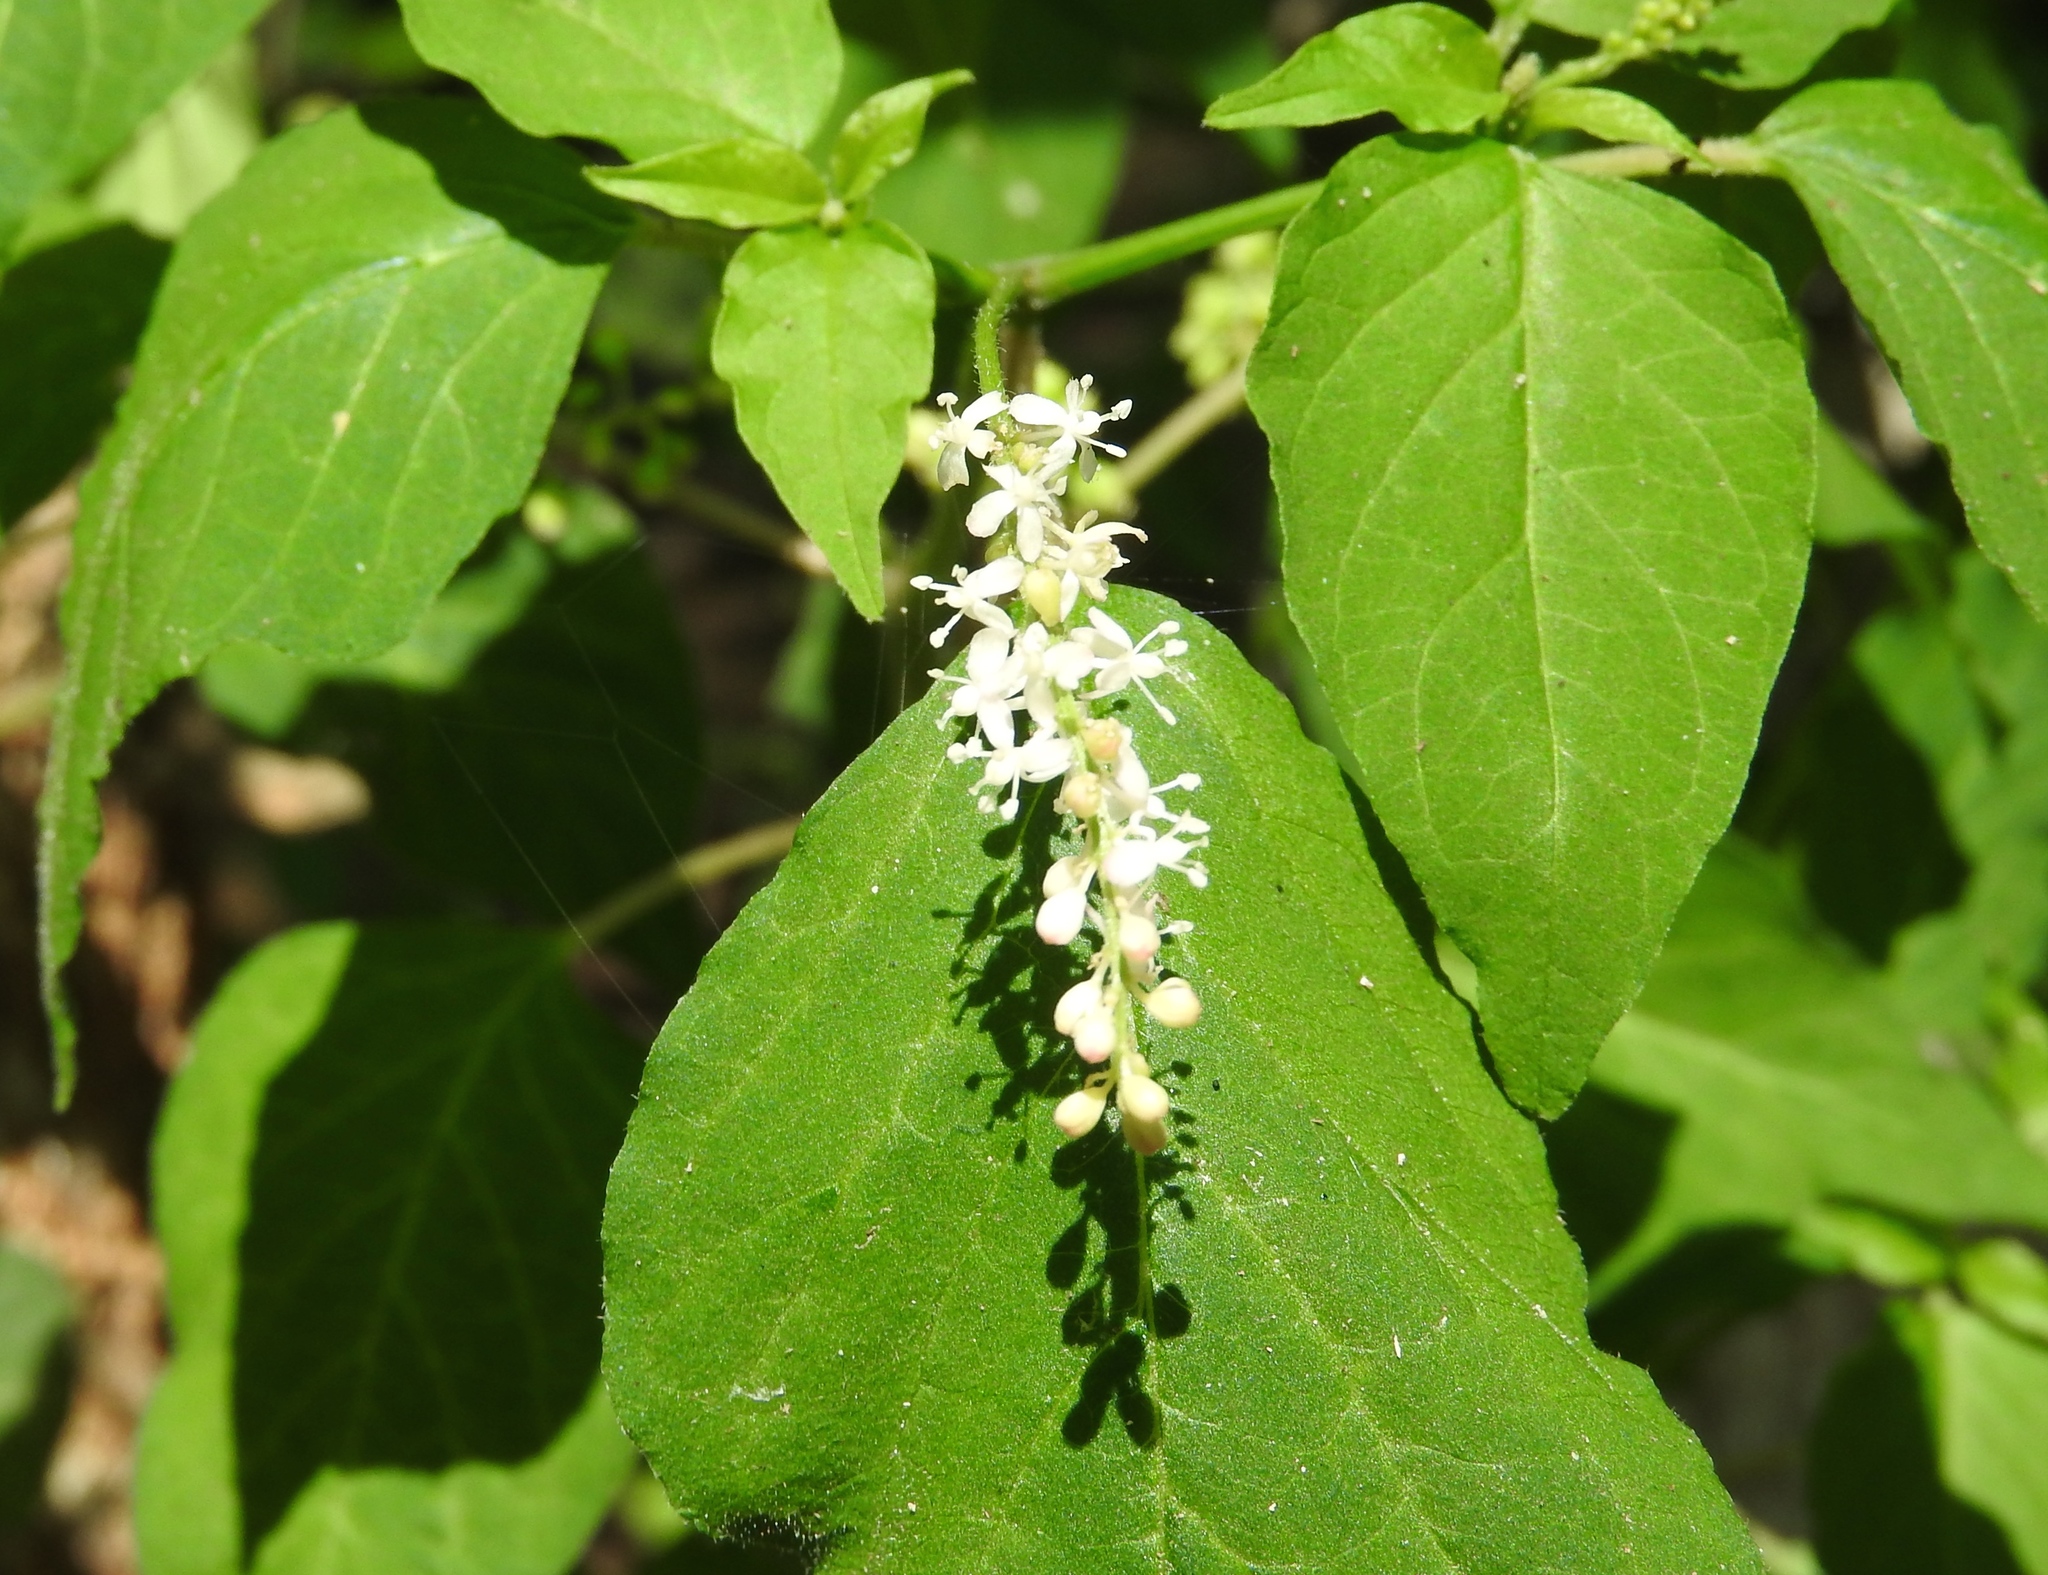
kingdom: Plantae
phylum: Tracheophyta
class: Magnoliopsida
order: Caryophyllales
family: Phytolaccaceae
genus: Rivina
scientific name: Rivina humilis
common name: Rougeplant
